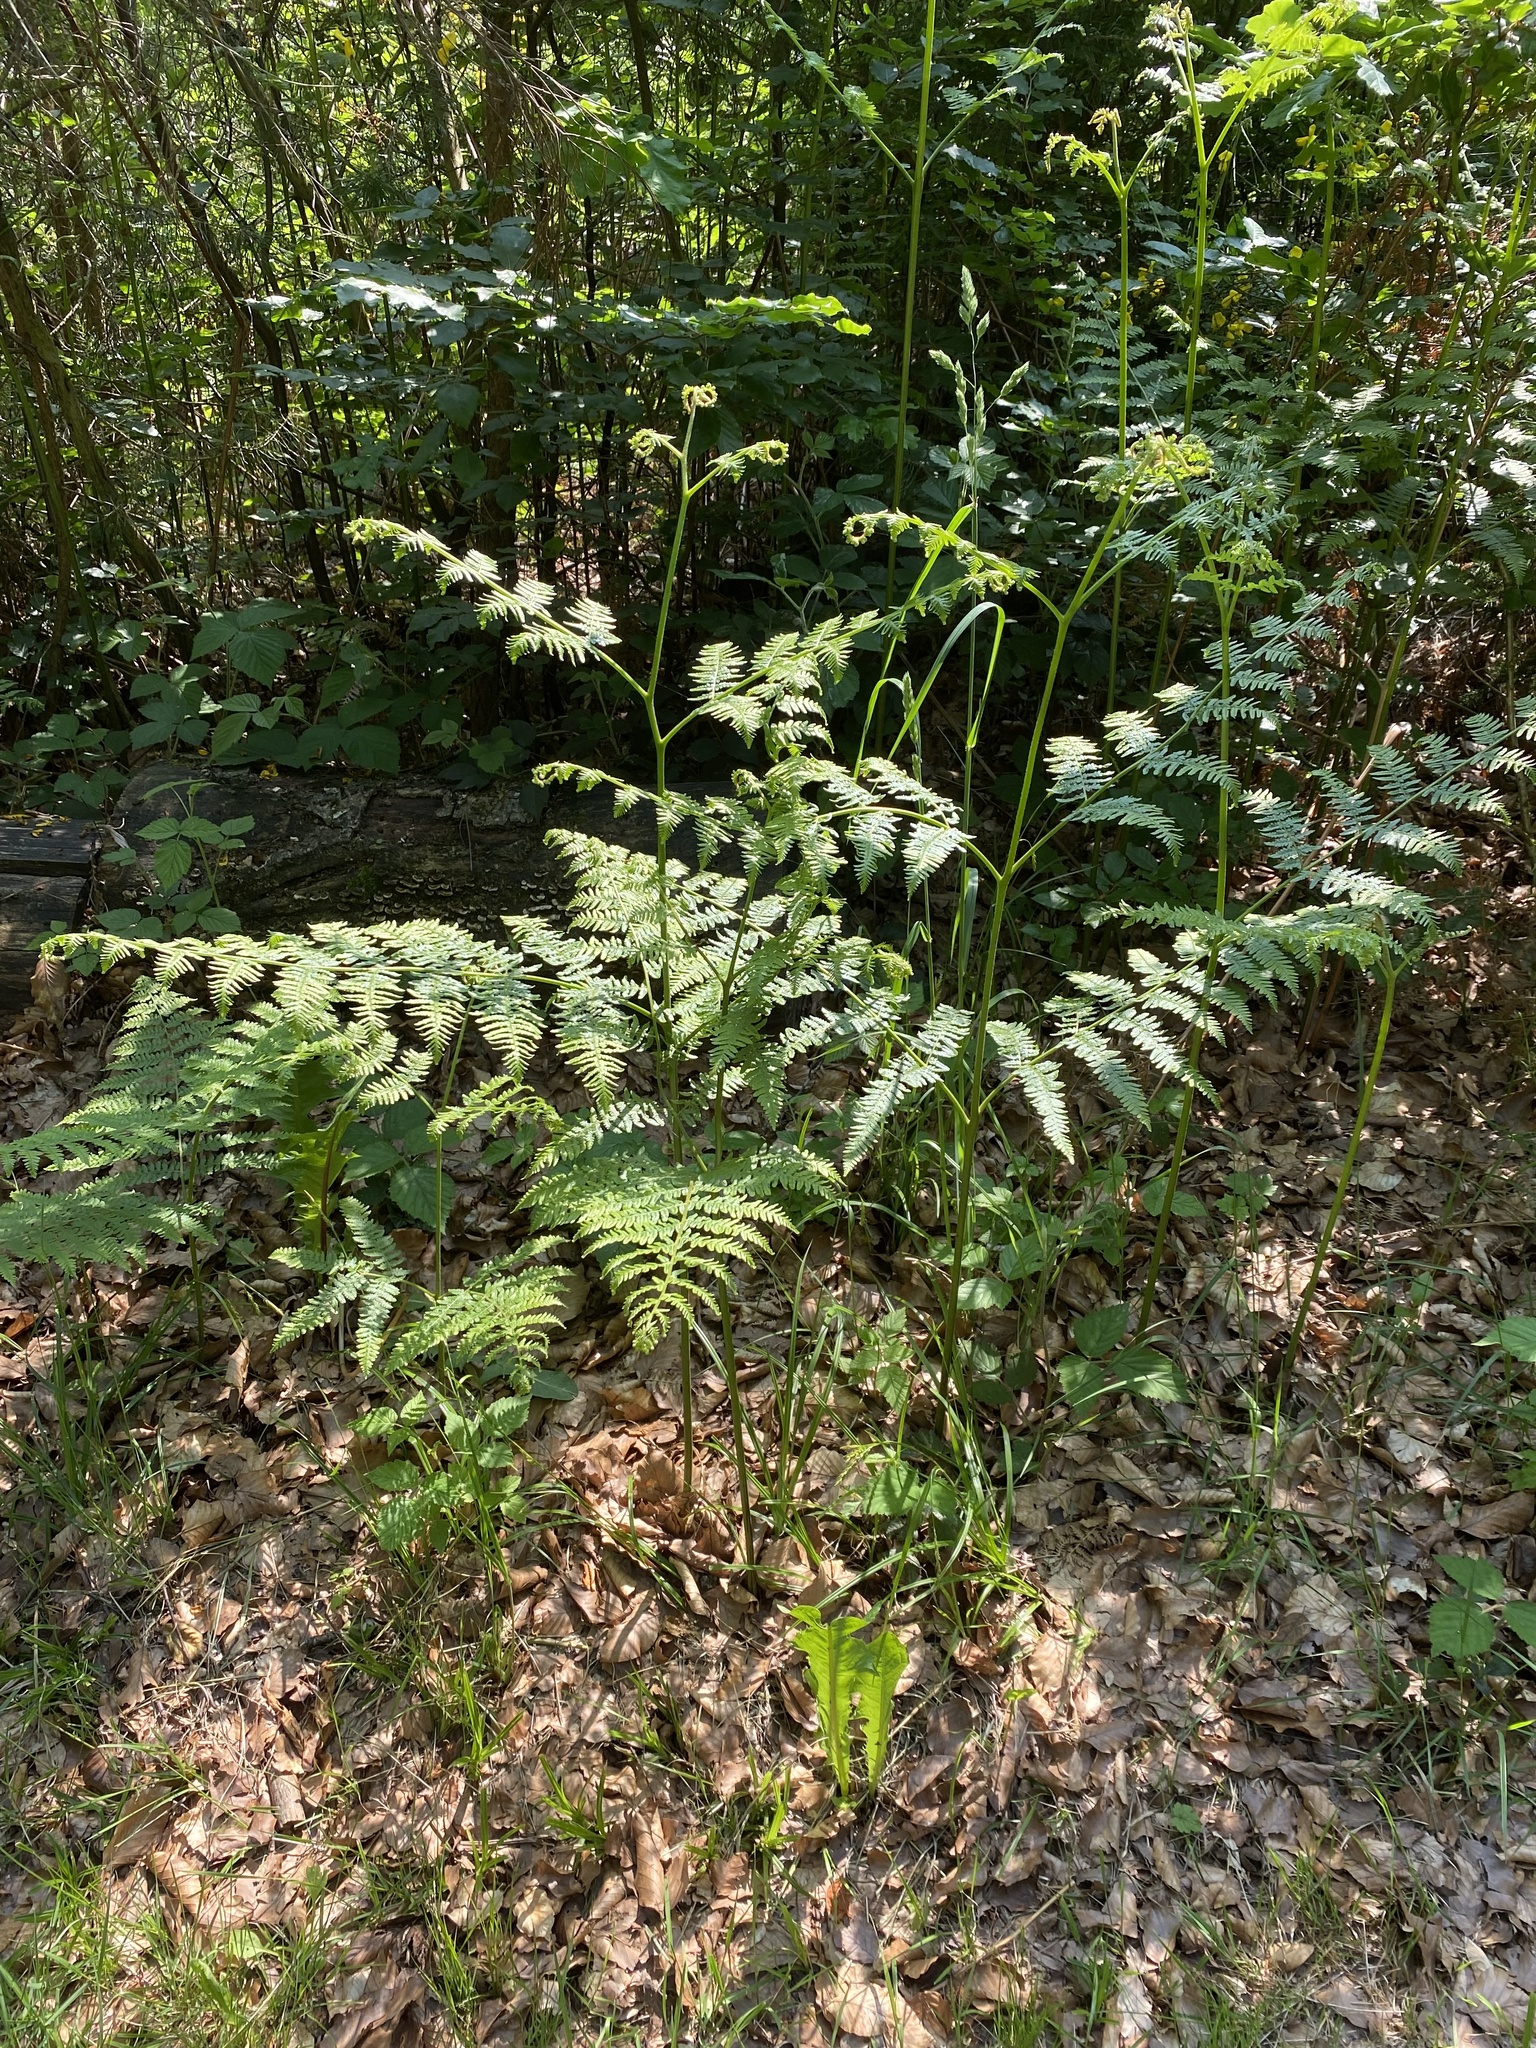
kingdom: Plantae
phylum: Tracheophyta
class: Polypodiopsida
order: Polypodiales
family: Dennstaedtiaceae
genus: Pteridium
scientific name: Pteridium aquilinum
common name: Bracken
